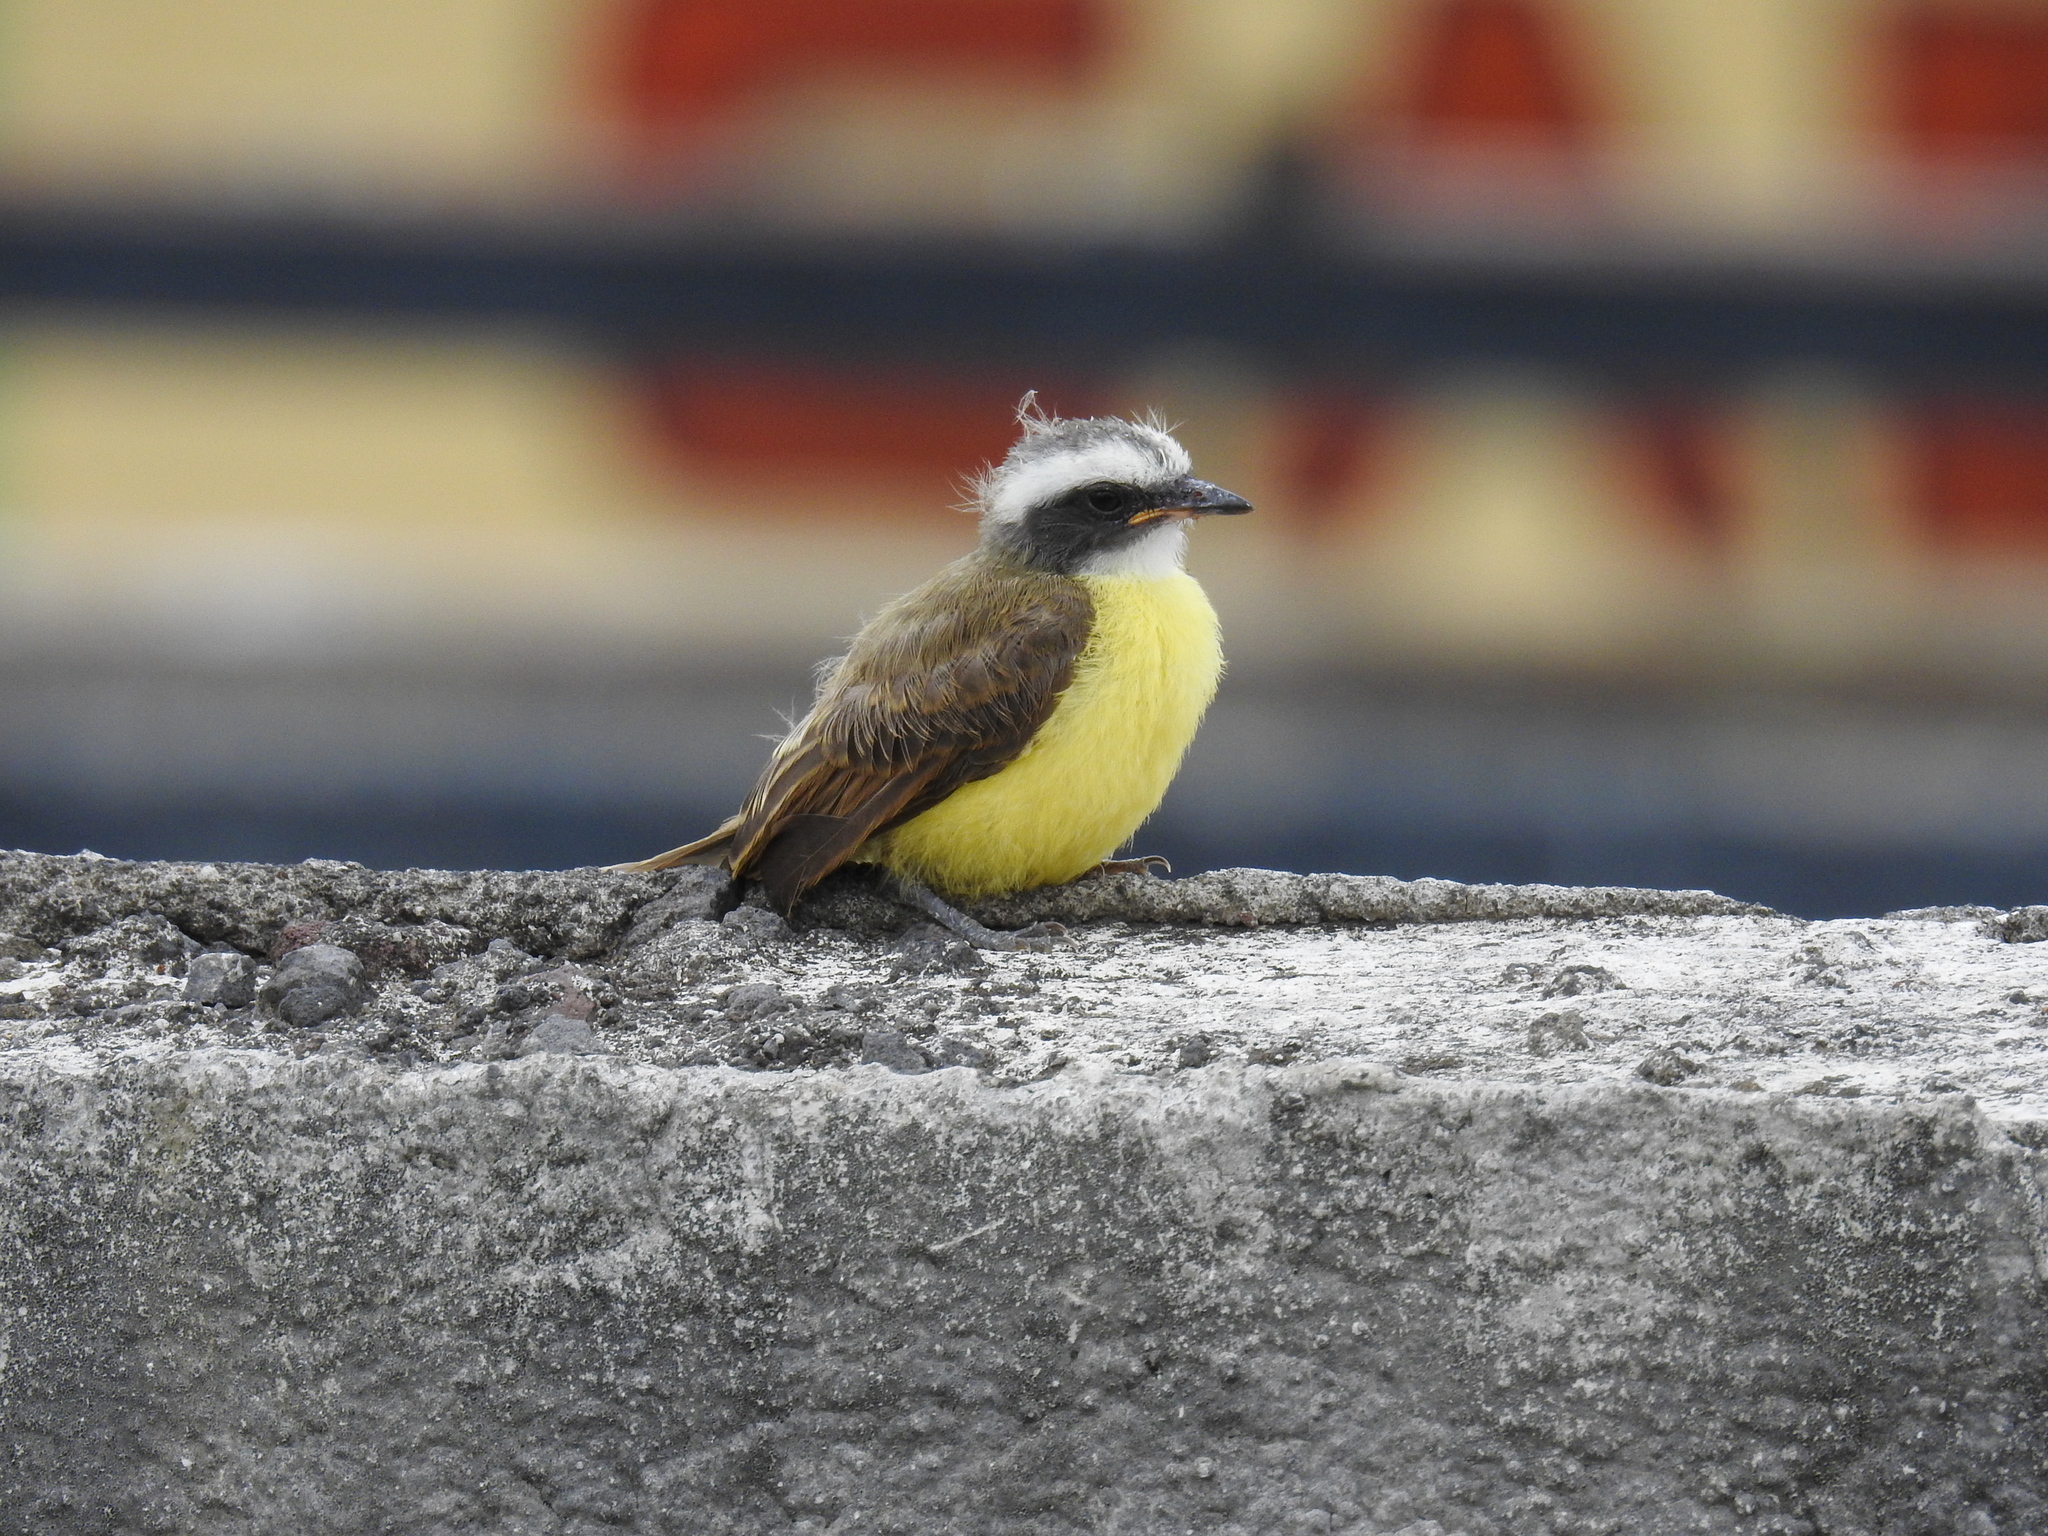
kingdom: Animalia
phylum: Chordata
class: Aves
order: Passeriformes
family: Tyrannidae
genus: Myiozetetes
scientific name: Myiozetetes similis
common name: Social flycatcher
